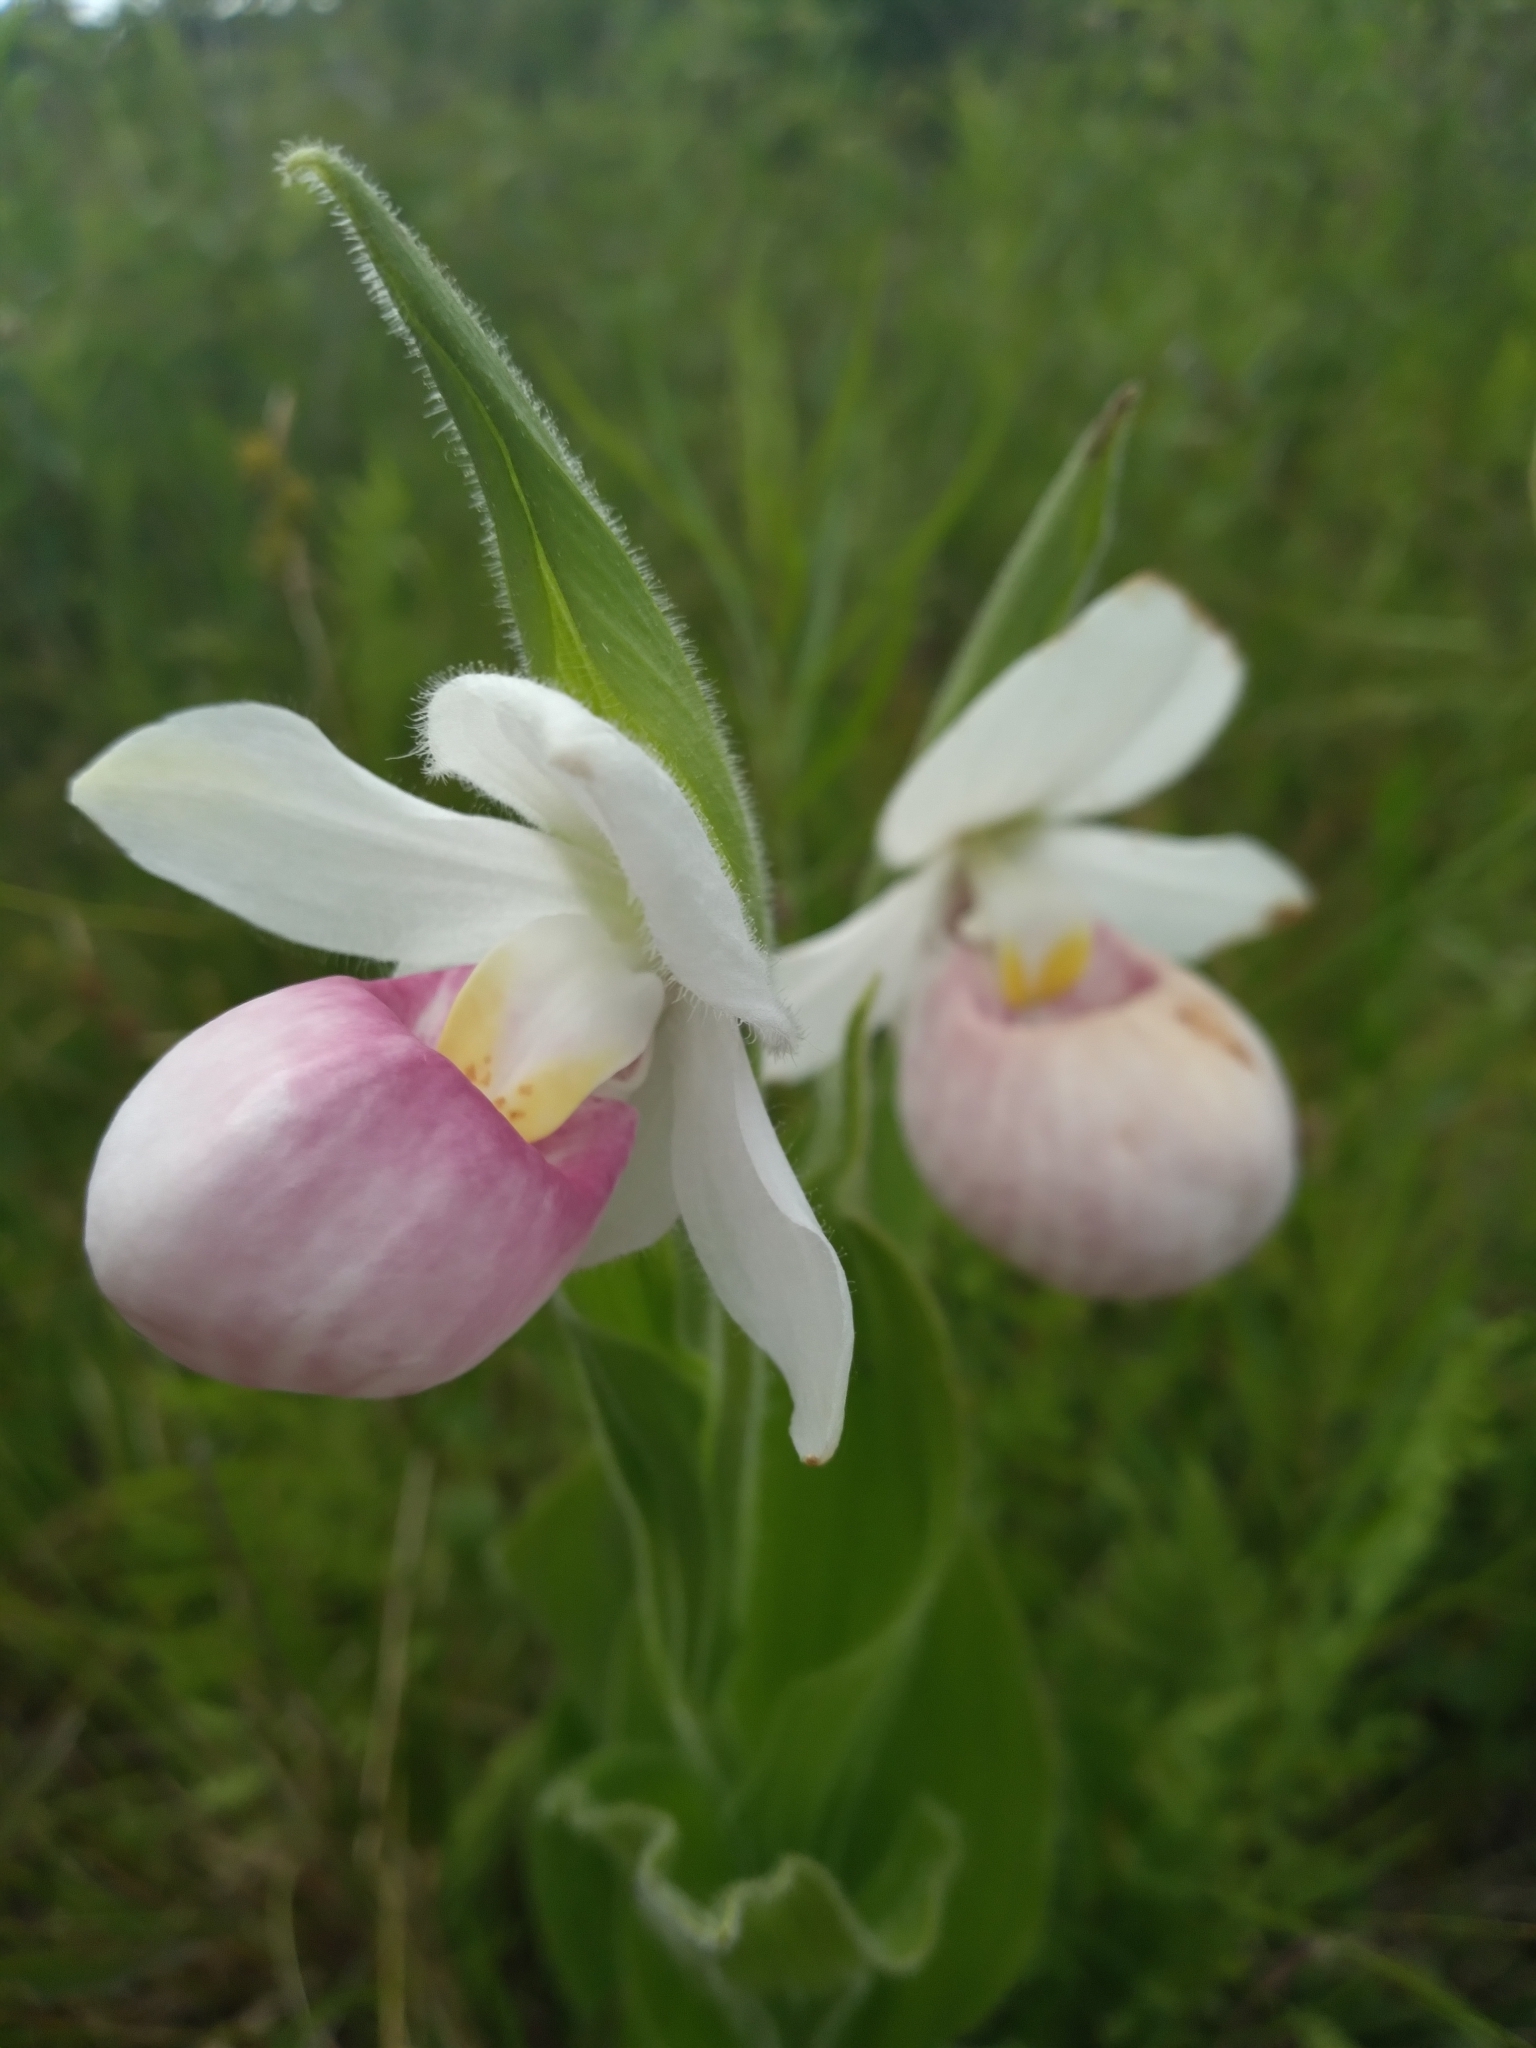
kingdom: Plantae
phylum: Tracheophyta
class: Liliopsida
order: Asparagales
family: Orchidaceae
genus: Cypripedium
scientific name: Cypripedium reginae
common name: Queen lady's-slipper
